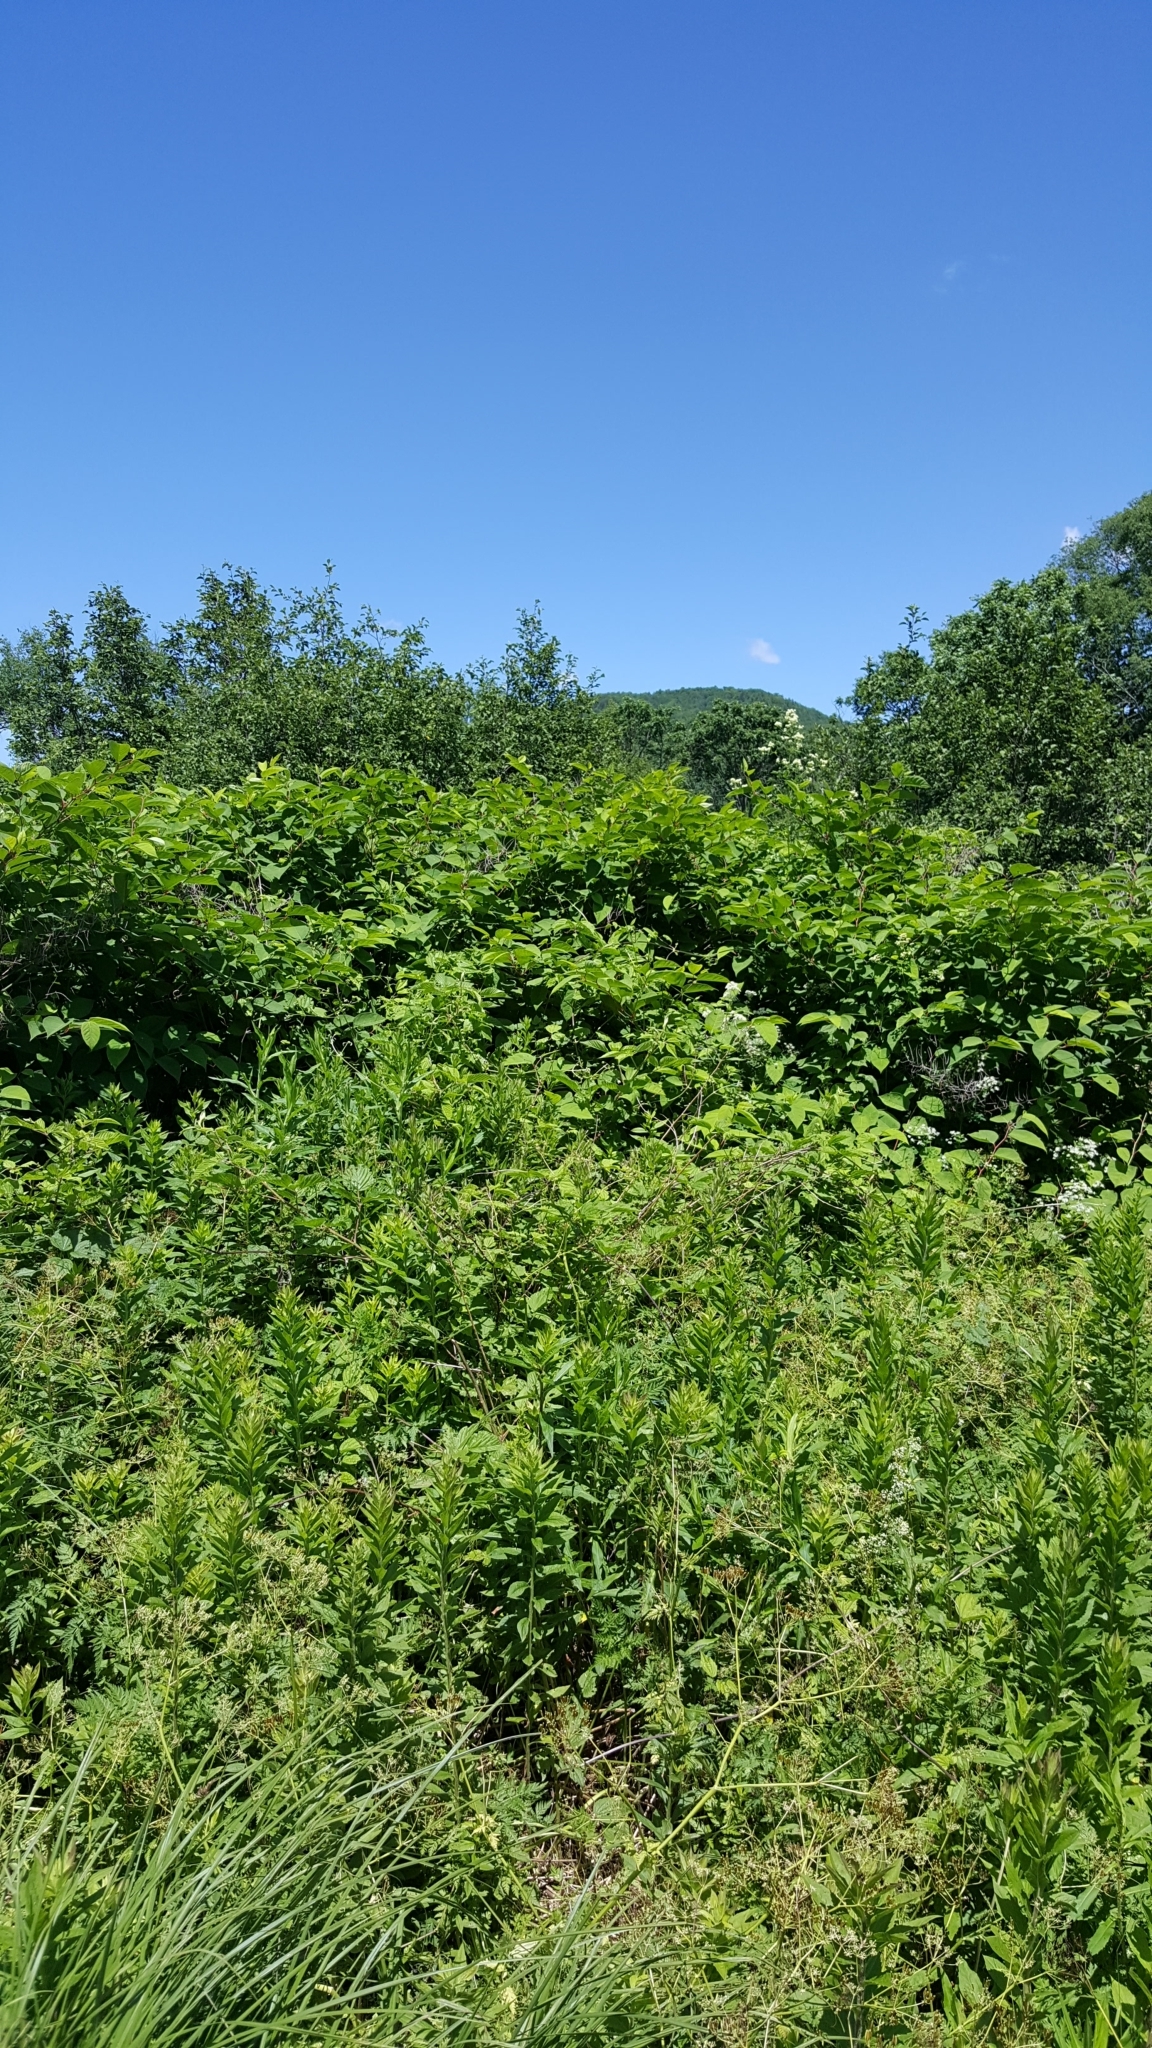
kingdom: Plantae
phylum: Tracheophyta
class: Magnoliopsida
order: Caryophyllales
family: Polygonaceae
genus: Reynoutria
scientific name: Reynoutria japonica
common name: Japanese knotweed
